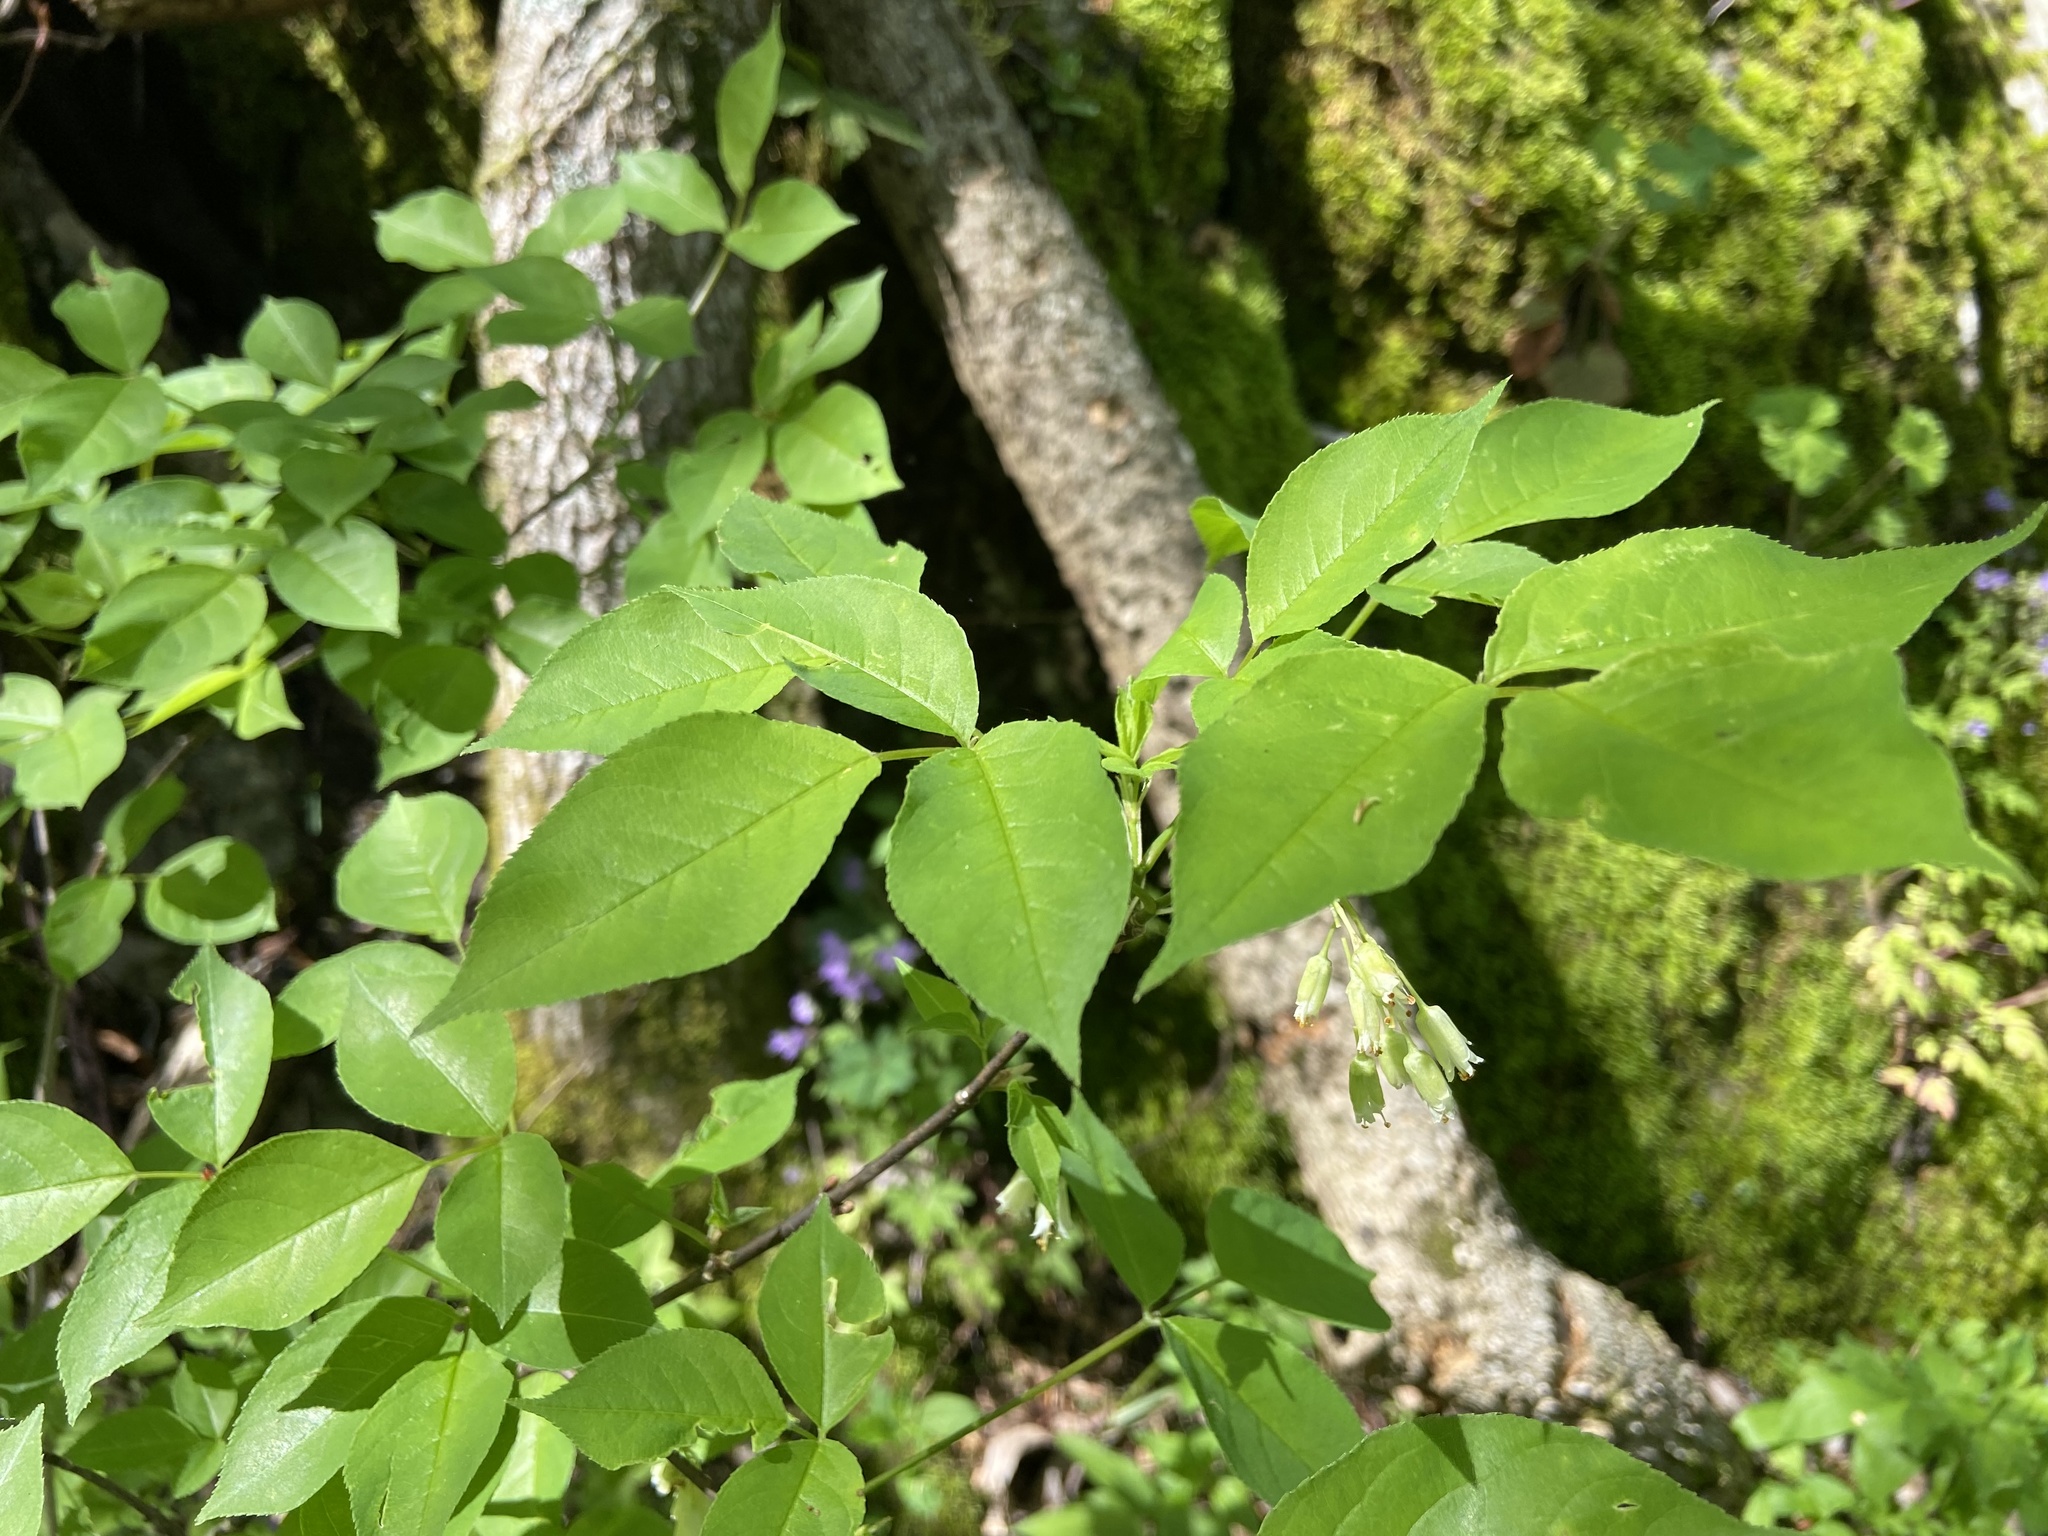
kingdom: Plantae
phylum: Tracheophyta
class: Magnoliopsida
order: Crossosomatales
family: Staphyleaceae
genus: Staphylea
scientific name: Staphylea trifolia
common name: American bladdernut
